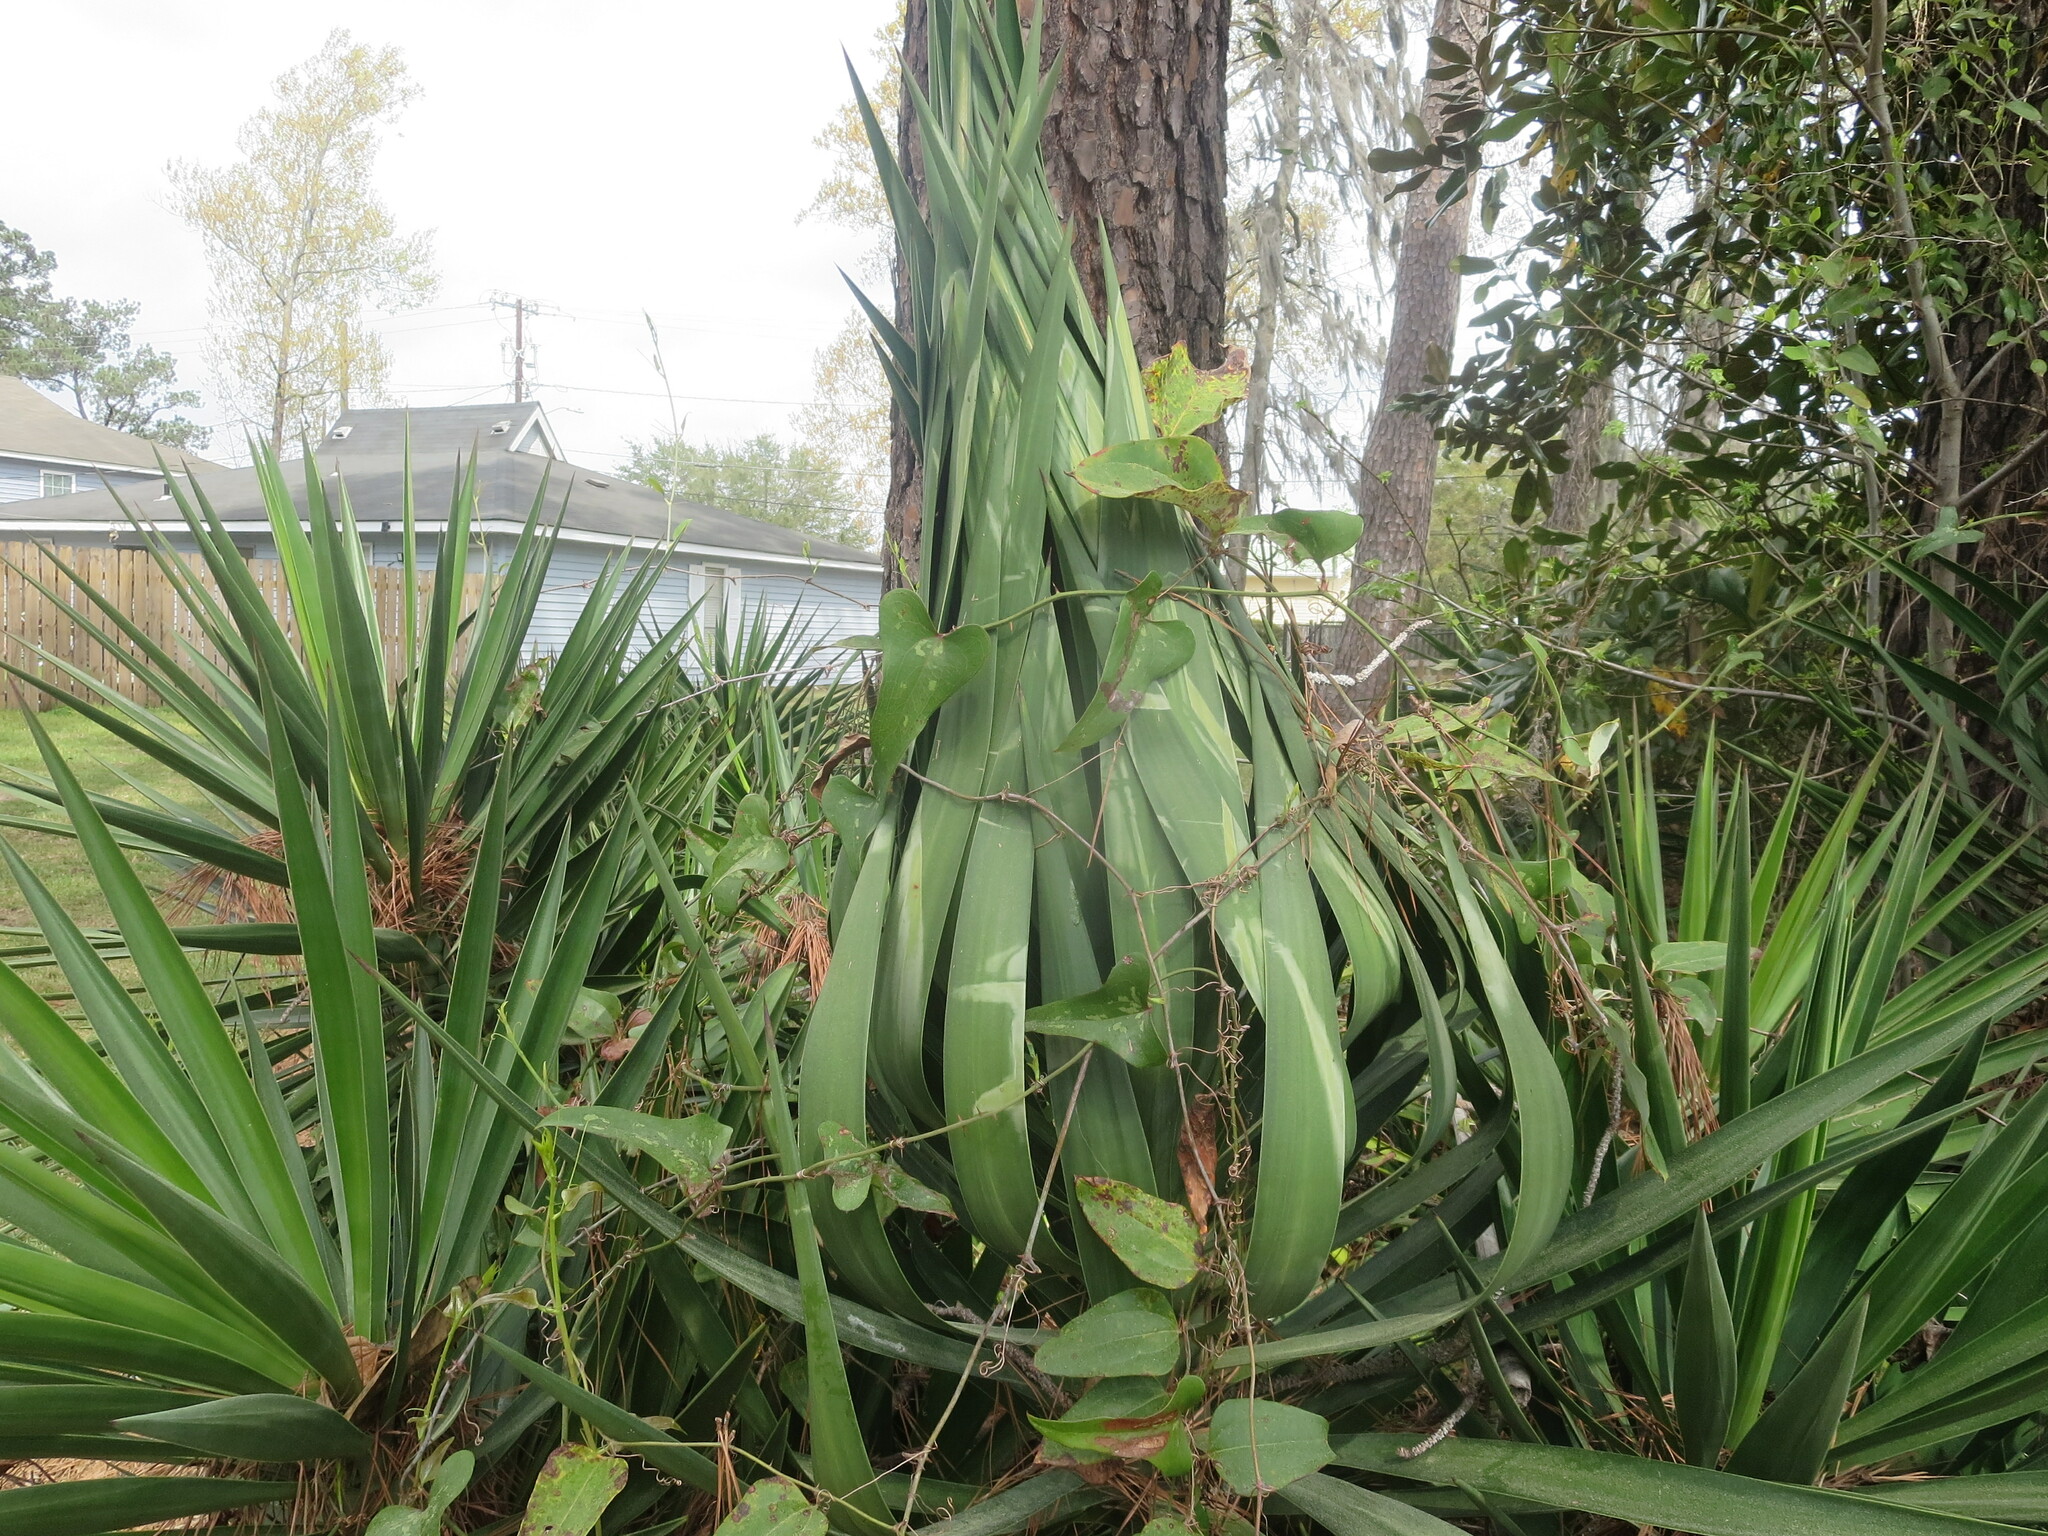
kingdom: Plantae
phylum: Tracheophyta
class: Liliopsida
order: Liliales
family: Smilacaceae
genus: Smilax
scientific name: Smilax bona-nox
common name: Catbrier
